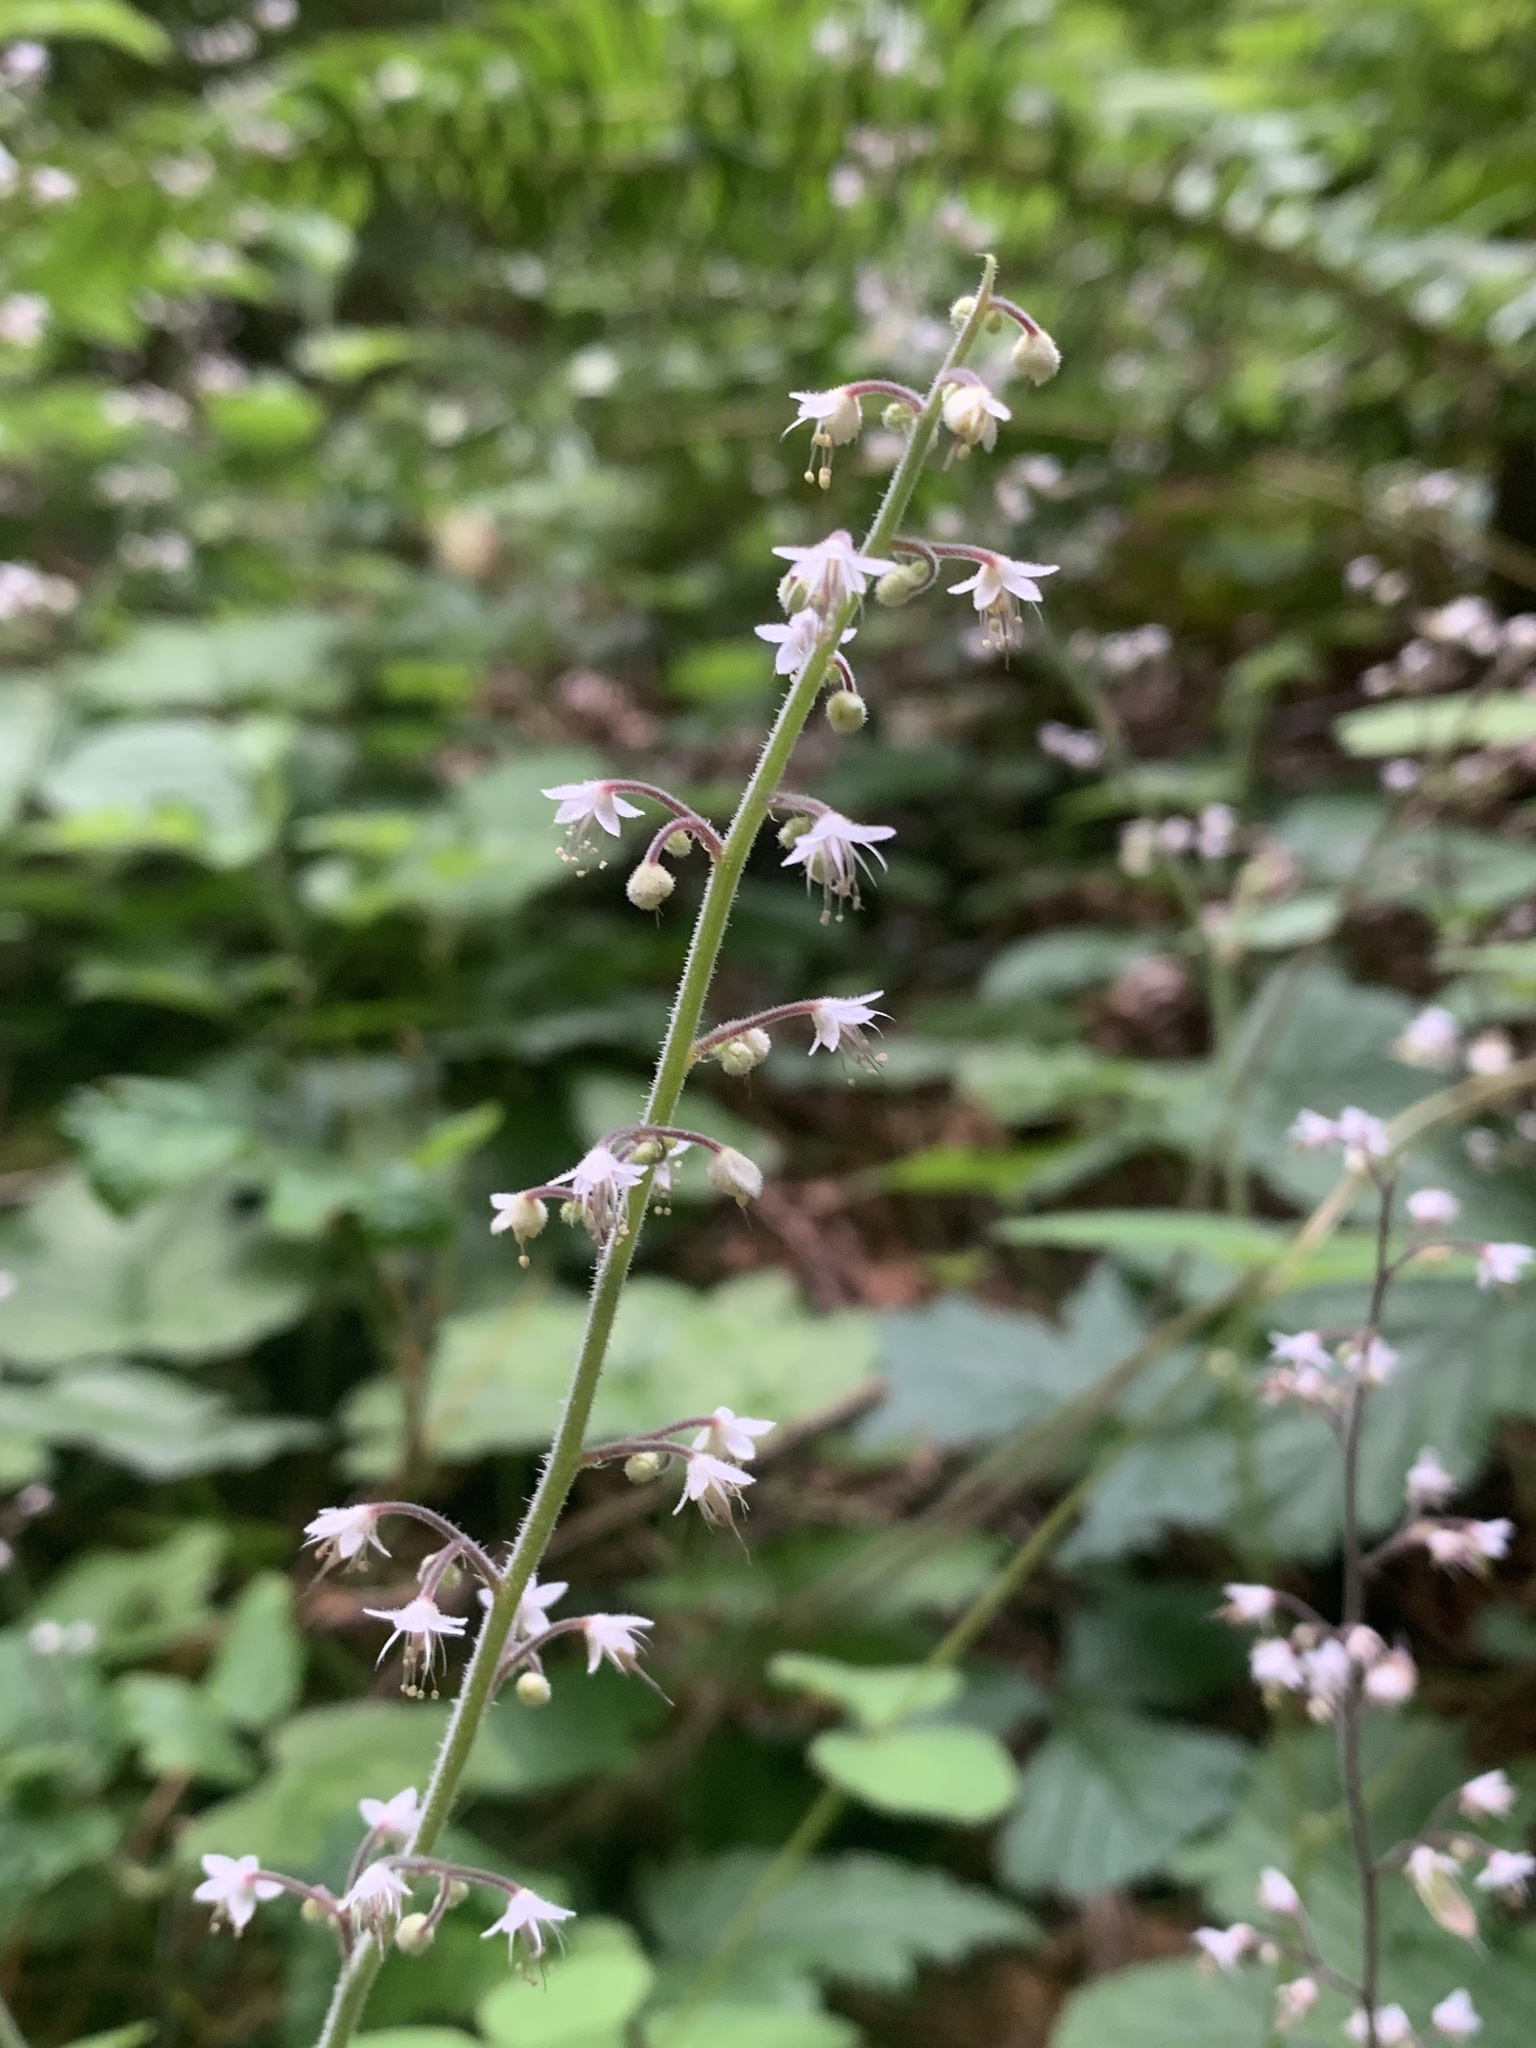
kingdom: Plantae
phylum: Tracheophyta
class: Magnoliopsida
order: Saxifragales
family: Saxifragaceae
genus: Tiarella
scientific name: Tiarella trifoliata
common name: Sugar-scoop
